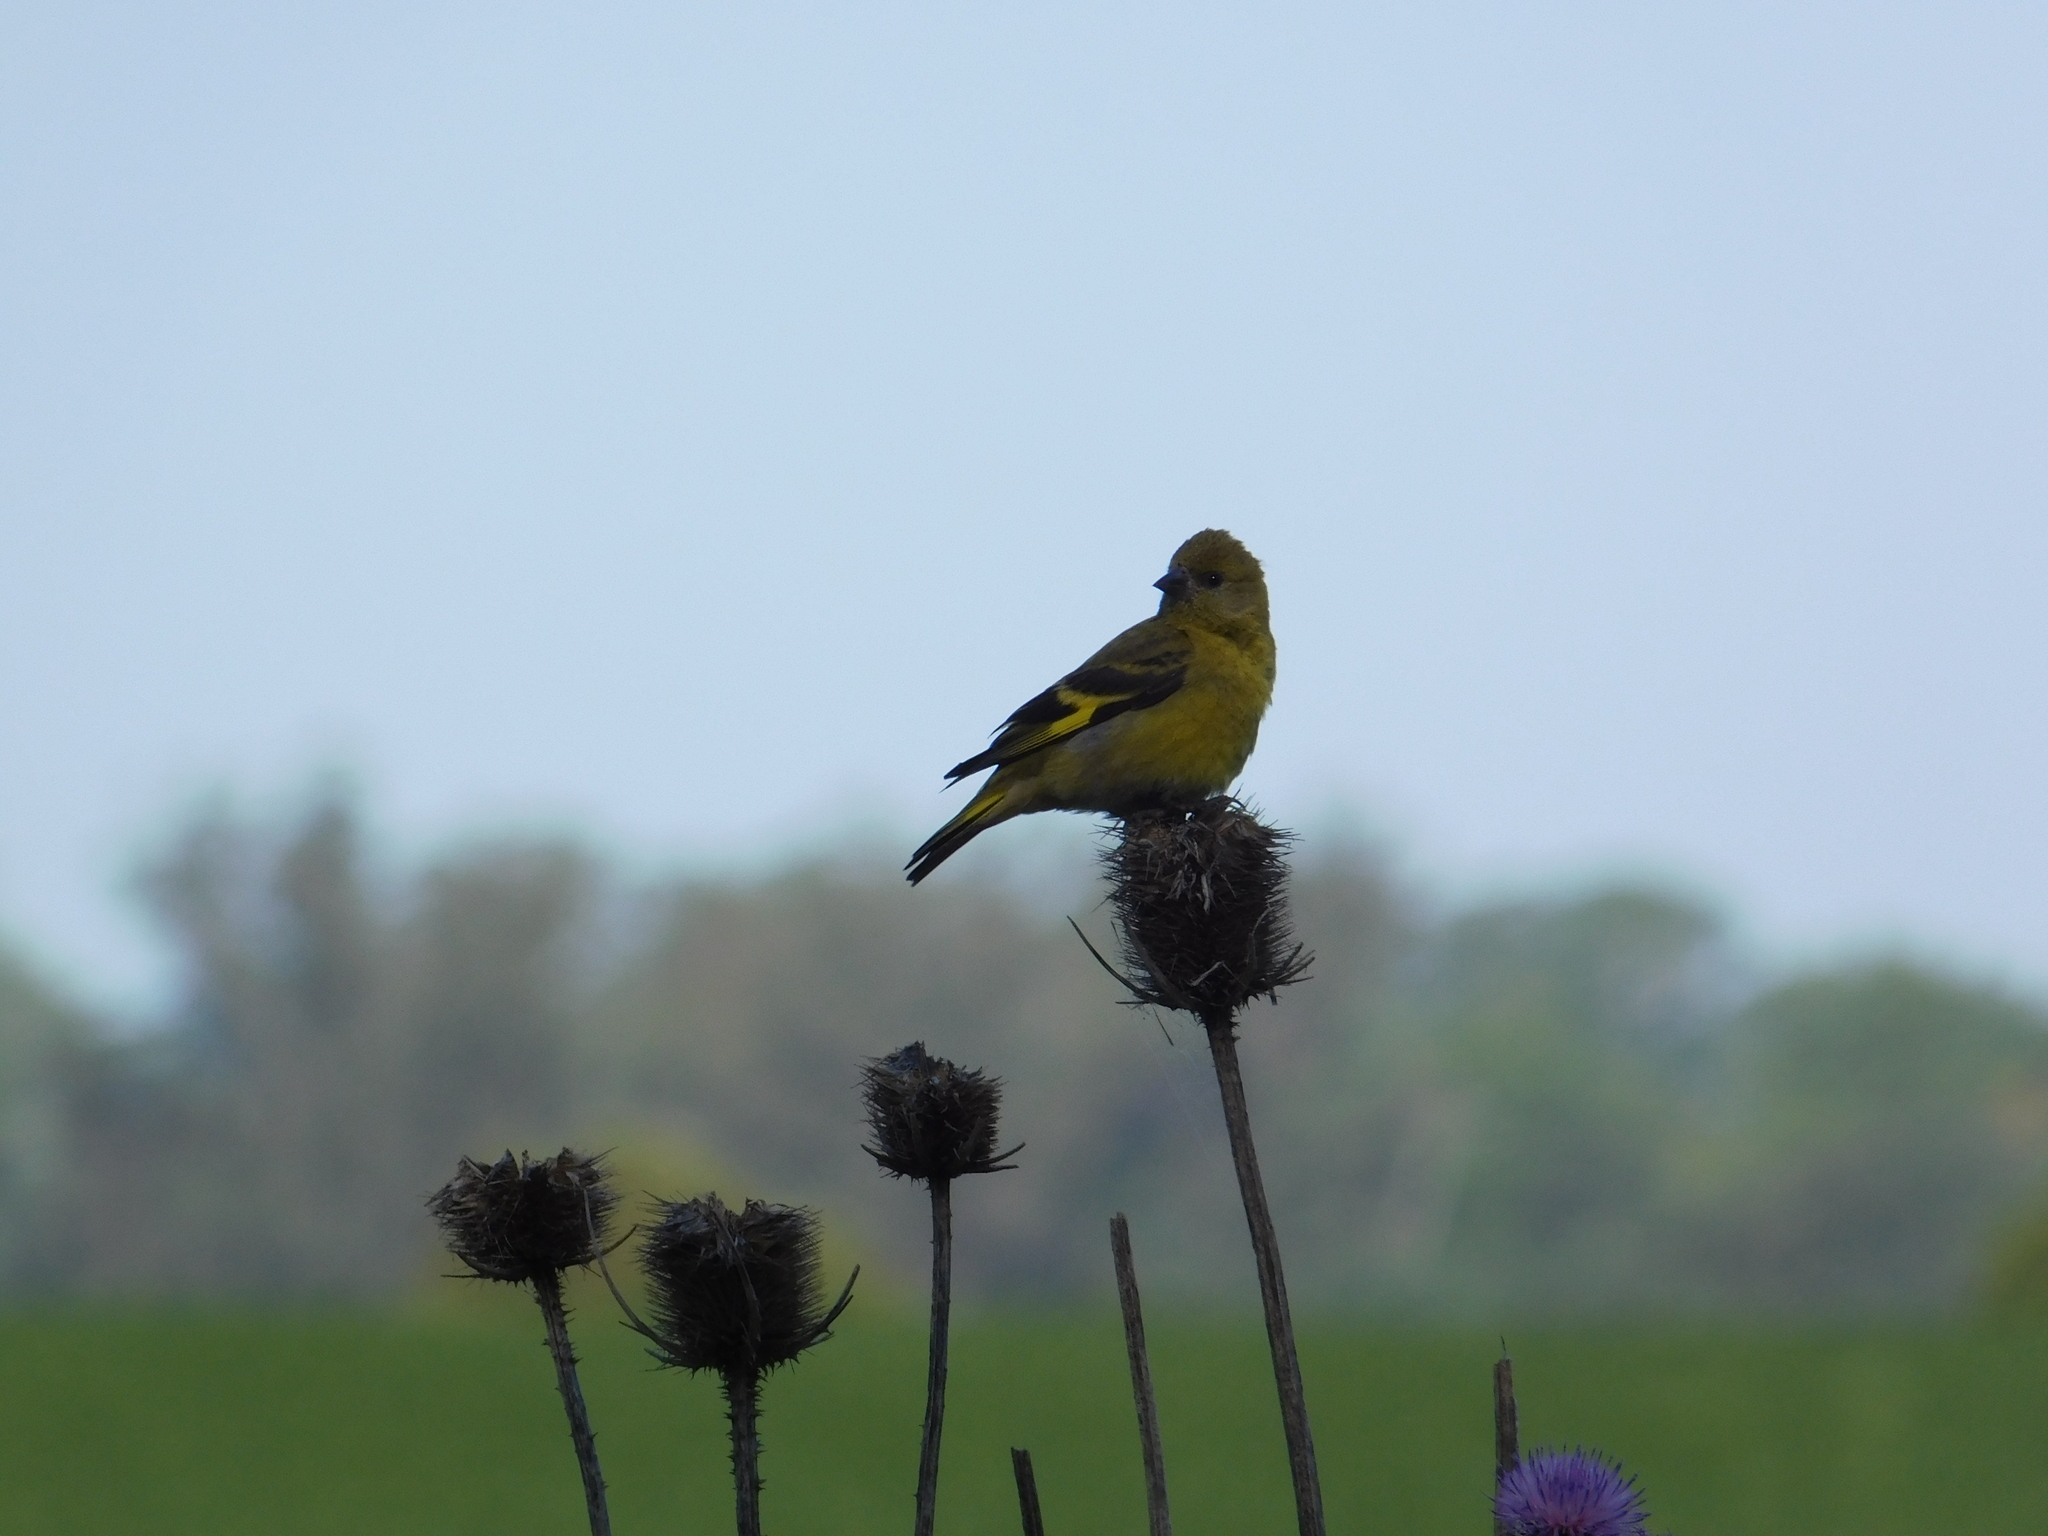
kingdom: Animalia
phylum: Chordata
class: Aves
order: Passeriformes
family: Fringillidae
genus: Spinus
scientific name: Spinus magellanicus
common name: Hooded siskin
